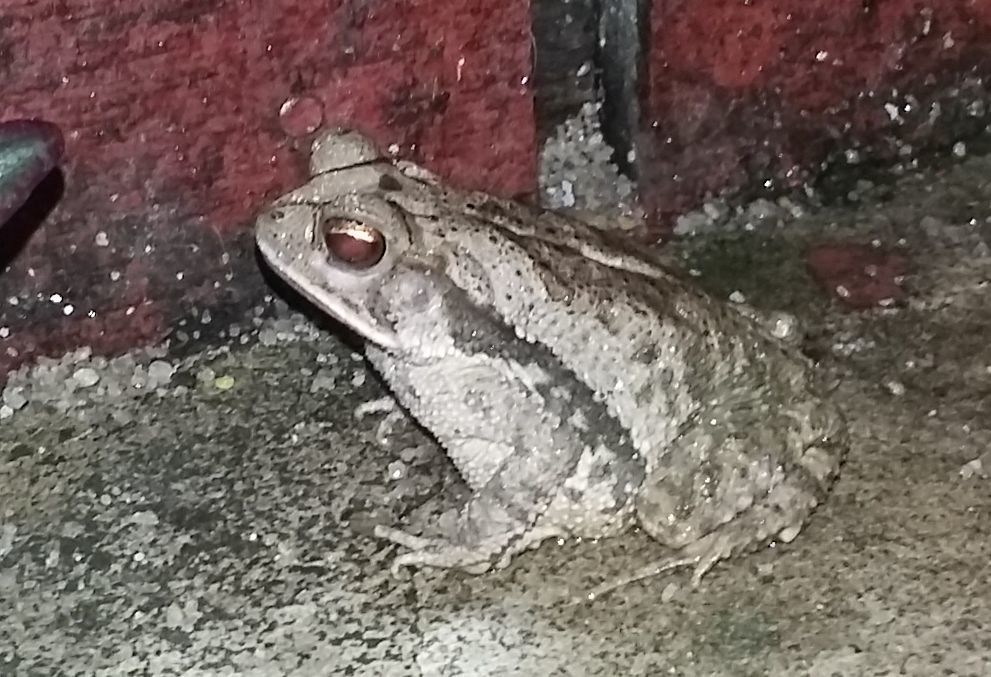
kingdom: Animalia
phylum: Chordata
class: Amphibia
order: Anura
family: Bufonidae
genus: Incilius
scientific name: Incilius valliceps
